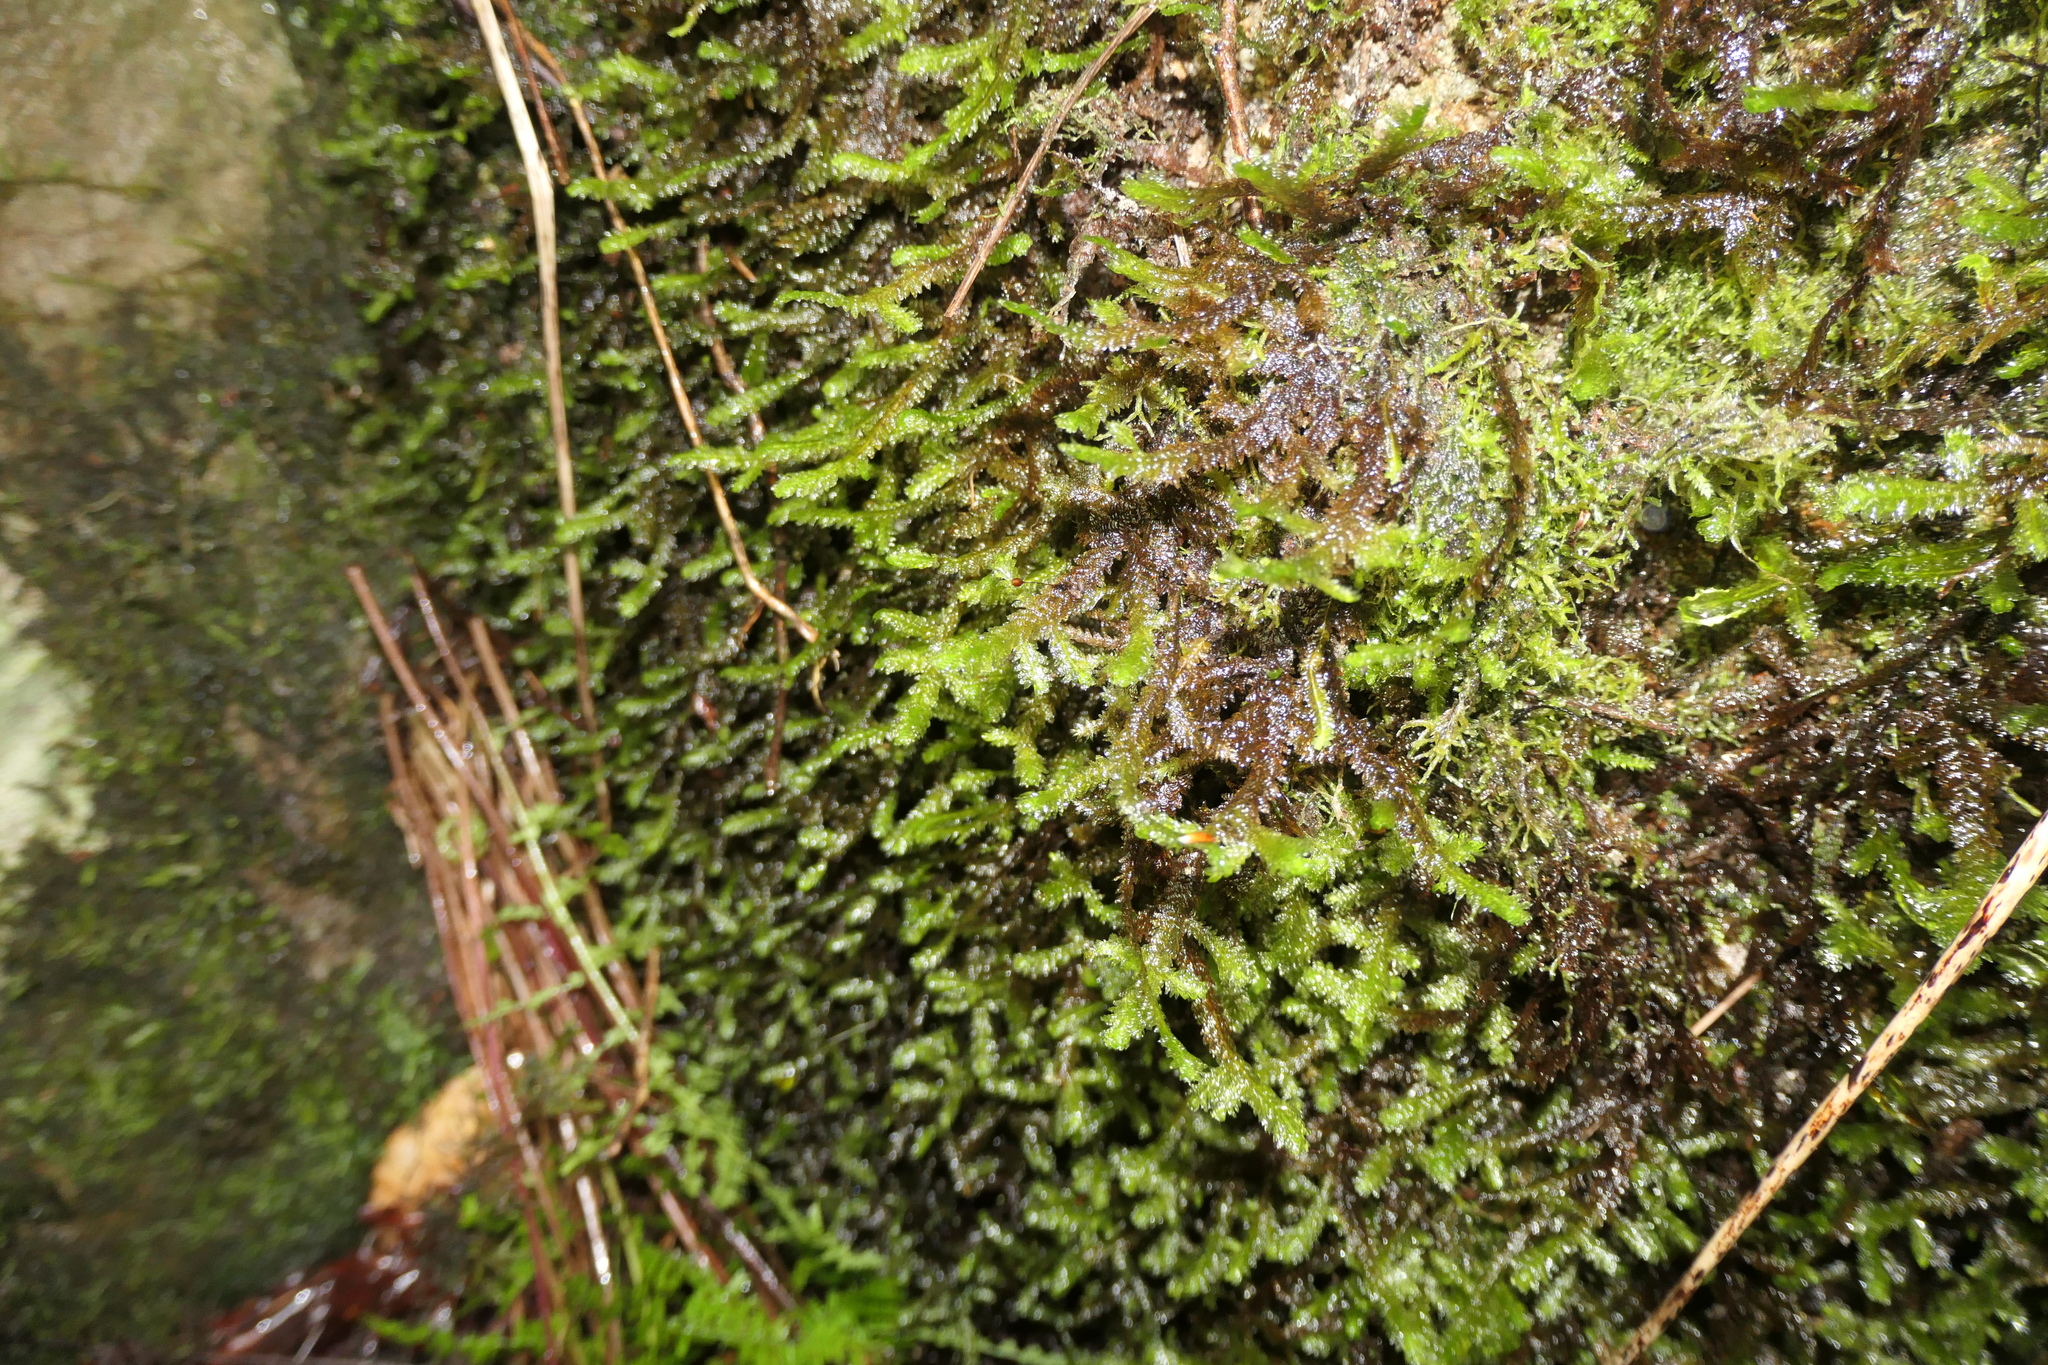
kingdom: Plantae
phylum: Bryophyta
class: Bryopsida
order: Hypnales
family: Neckeraceae
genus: Exsertotheca
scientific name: Exsertotheca crispa
